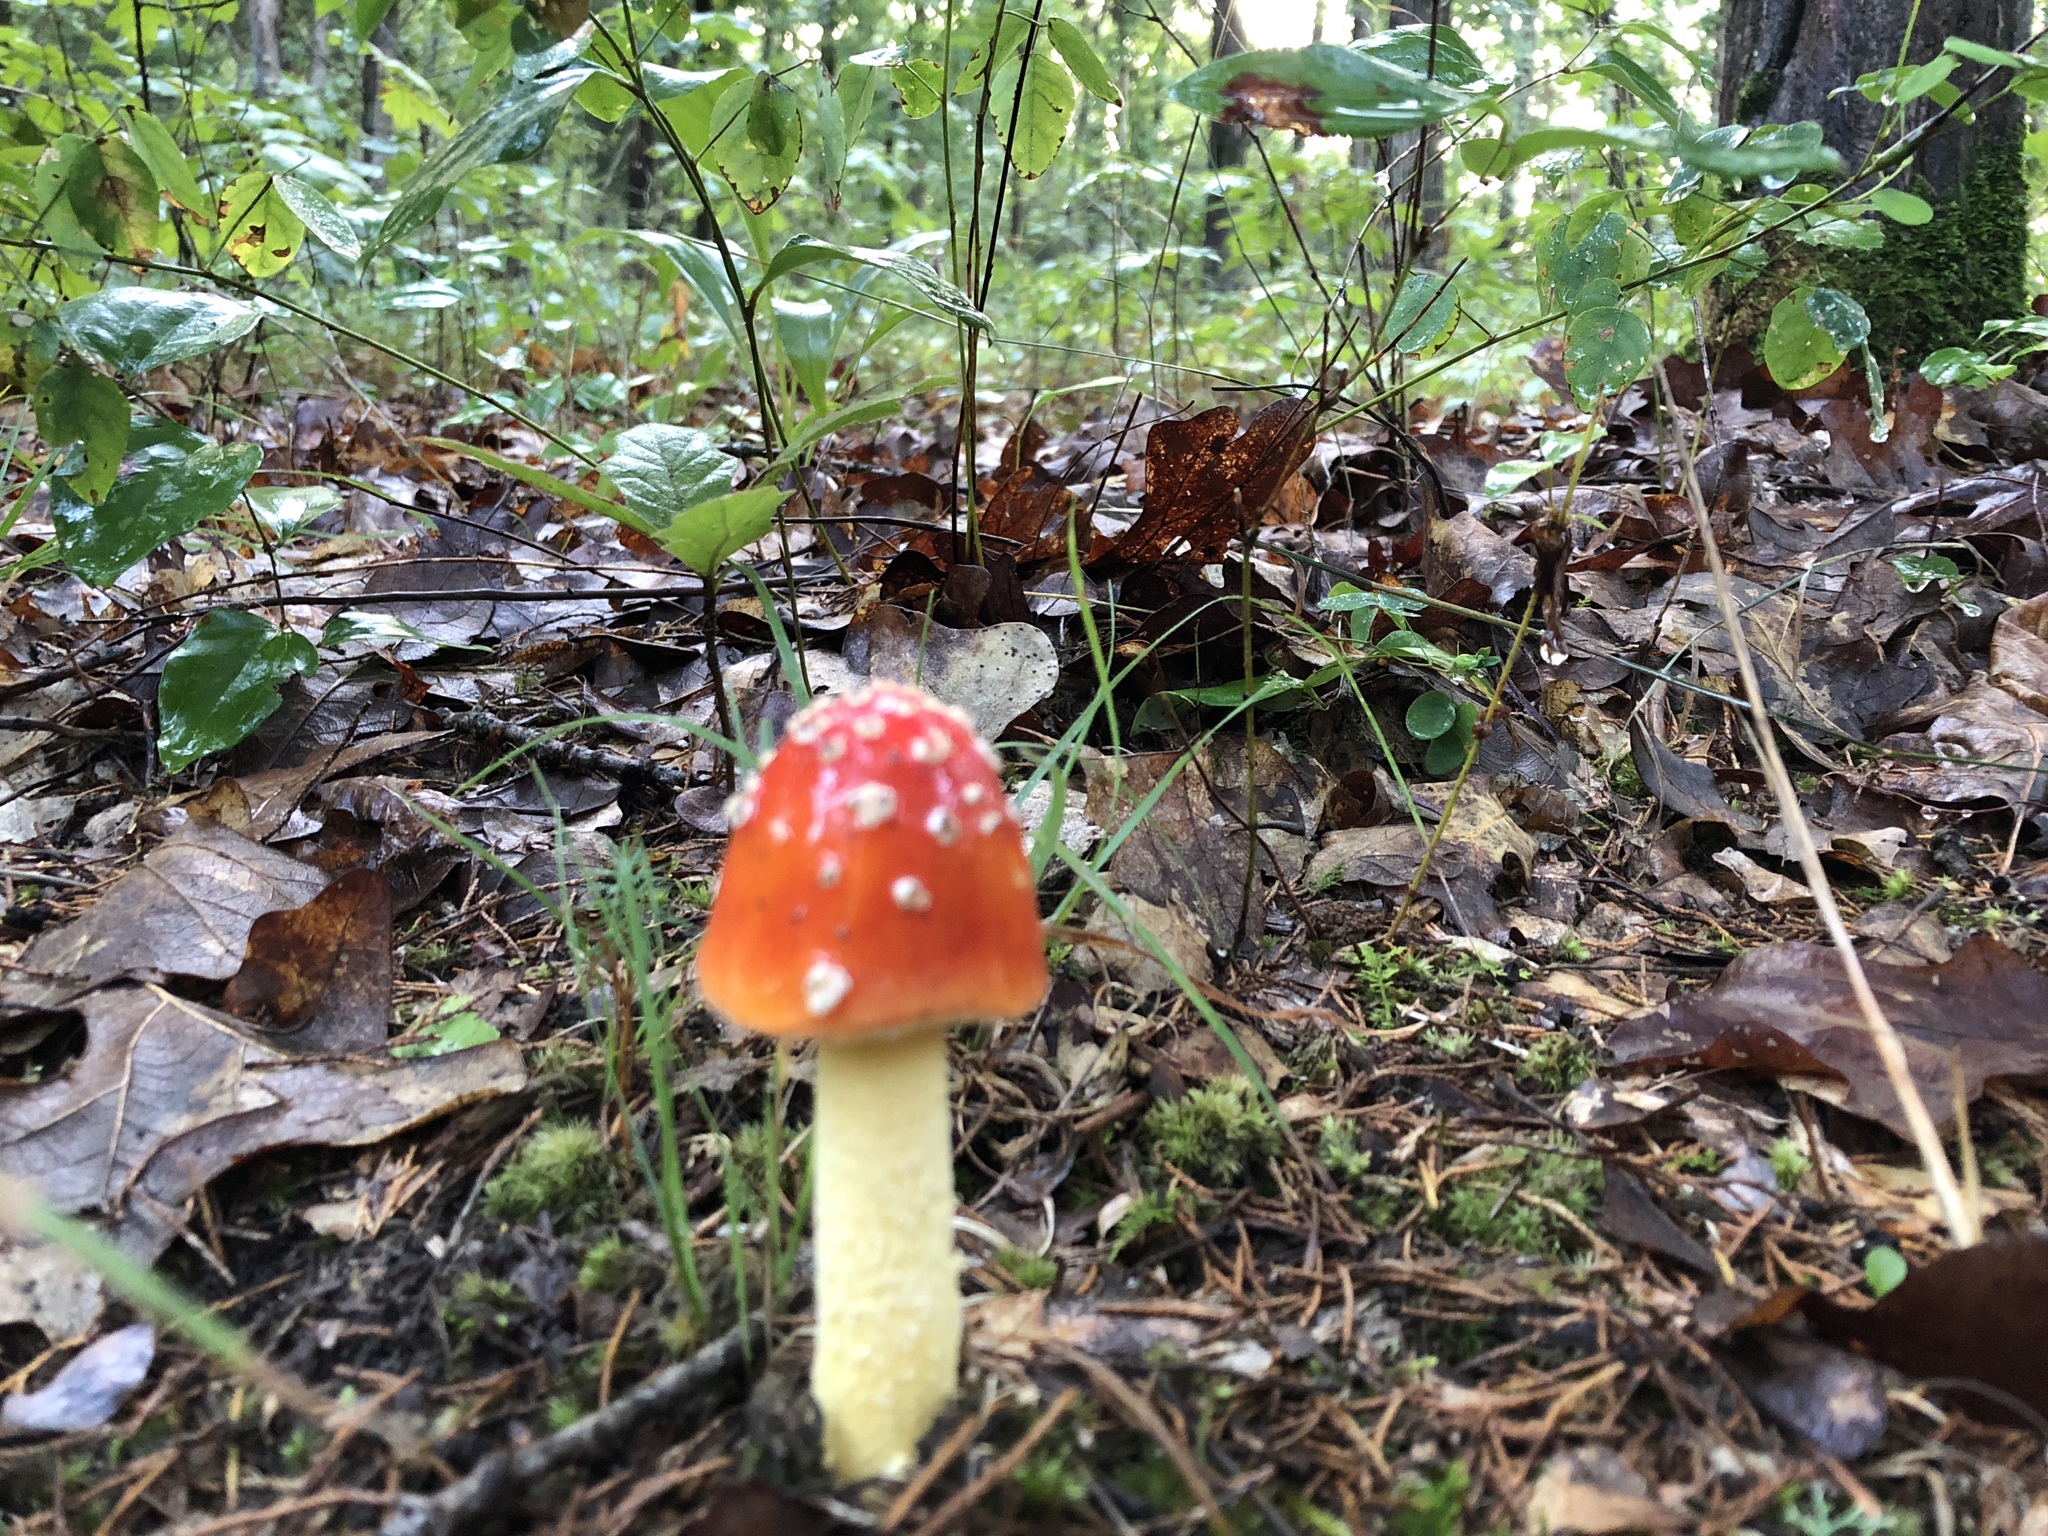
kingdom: Fungi
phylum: Basidiomycota
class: Agaricomycetes
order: Agaricales
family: Amanitaceae
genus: Amanita
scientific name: Amanita parcivolvata
